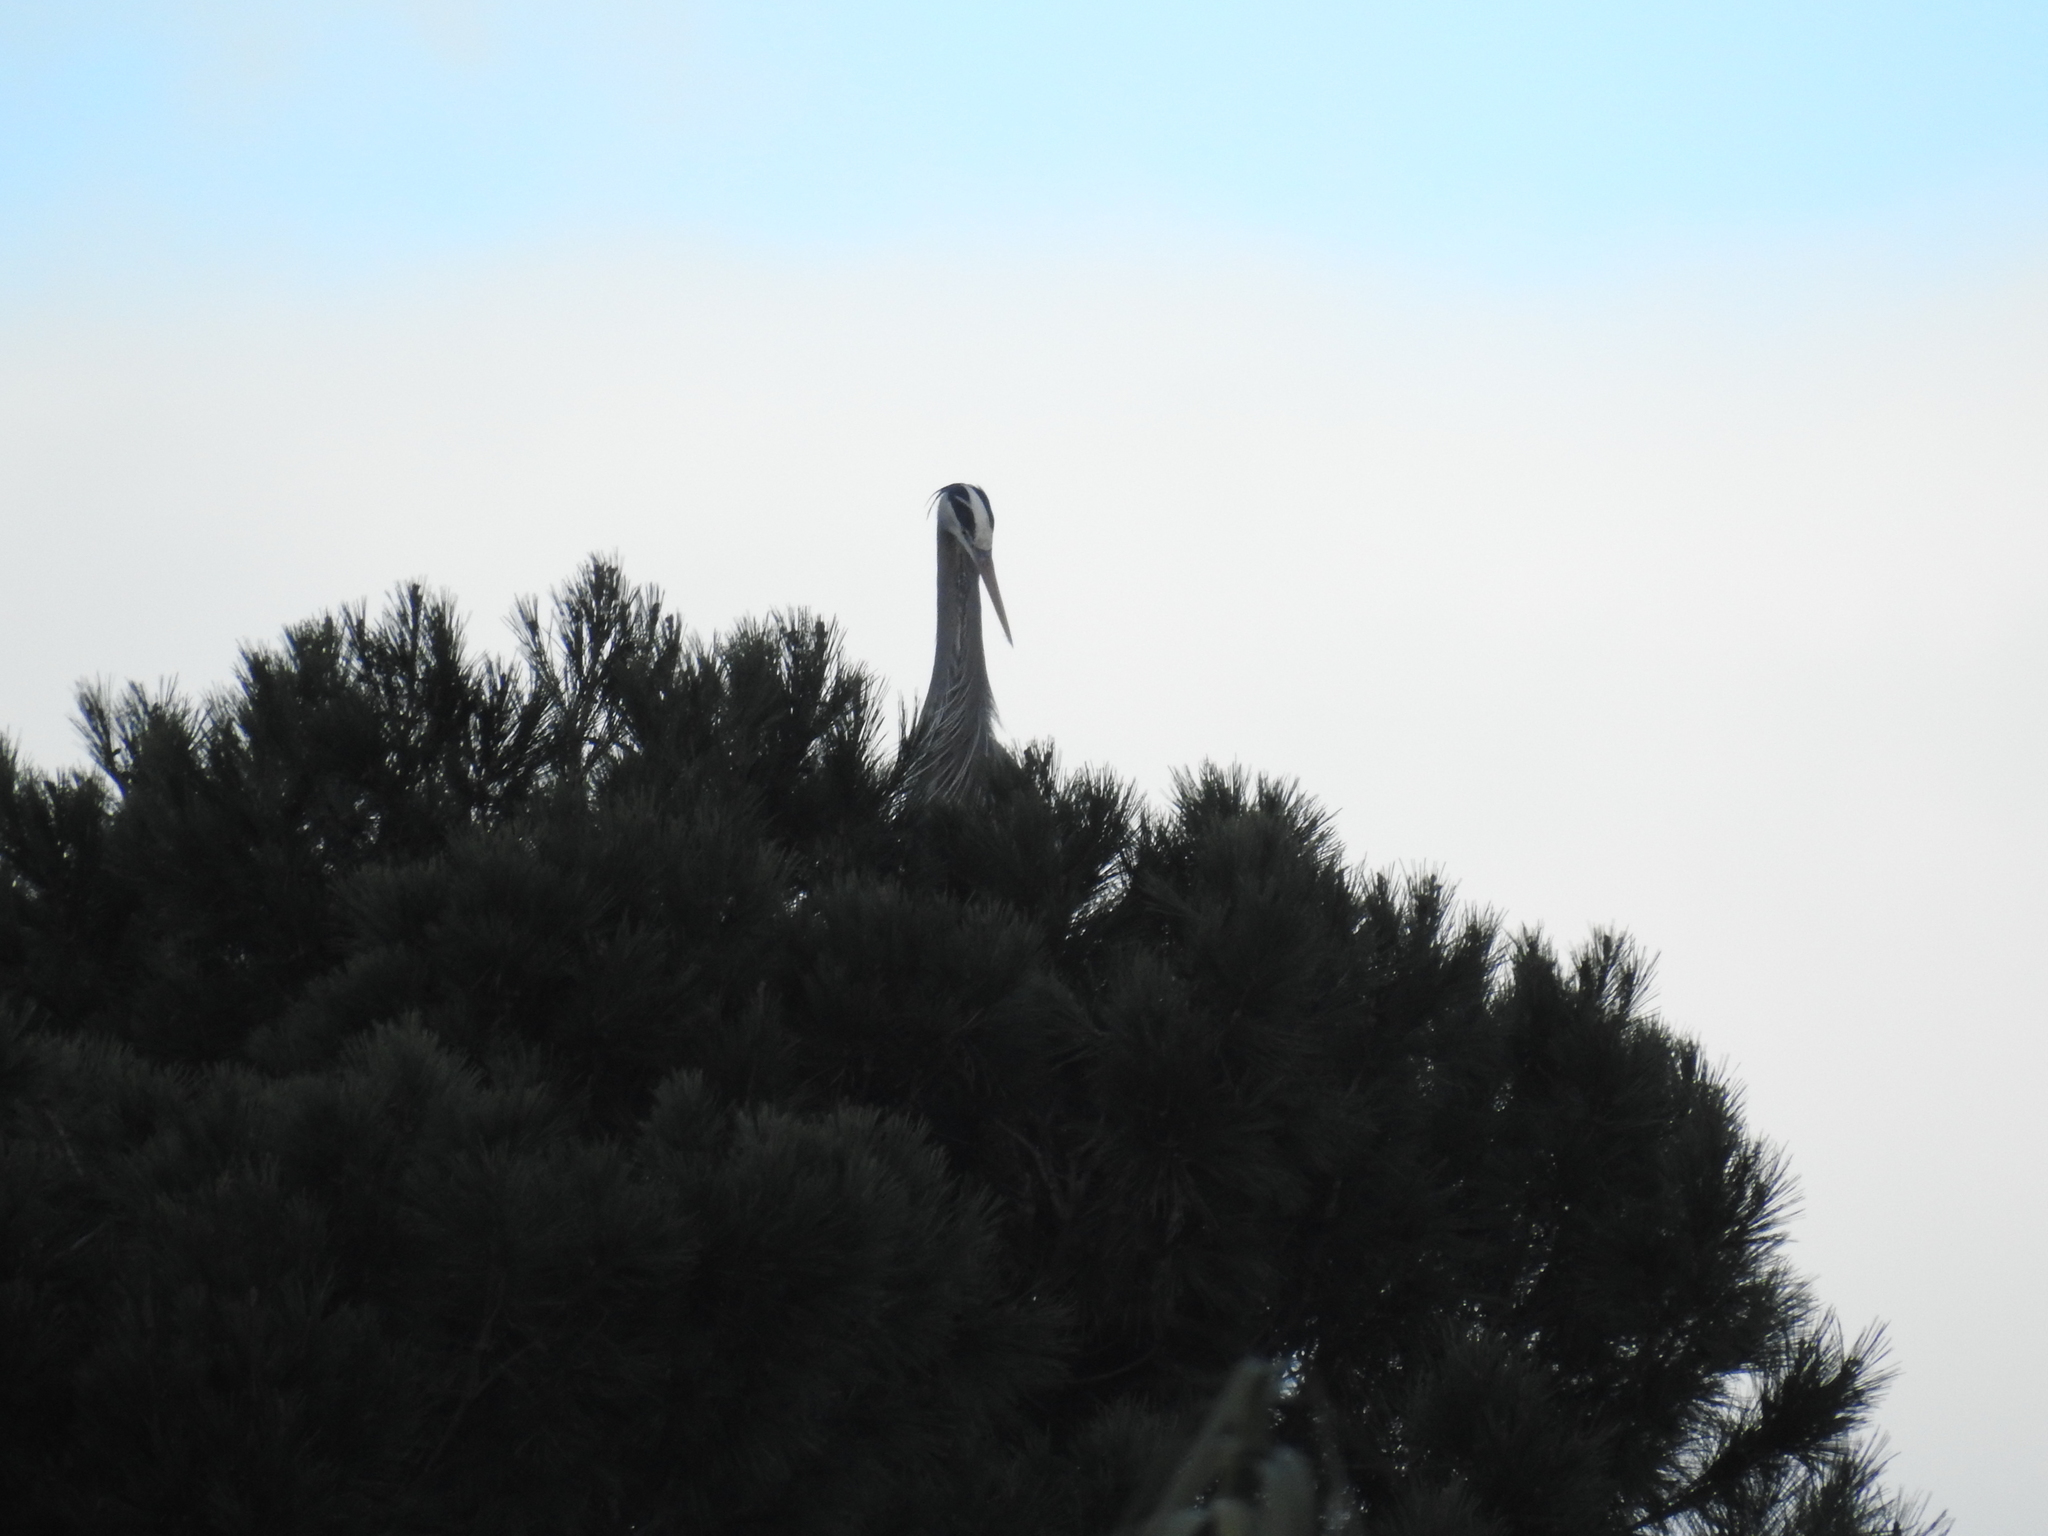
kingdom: Animalia
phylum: Chordata
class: Aves
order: Pelecaniformes
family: Ardeidae
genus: Ardea
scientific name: Ardea herodias
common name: Great blue heron
